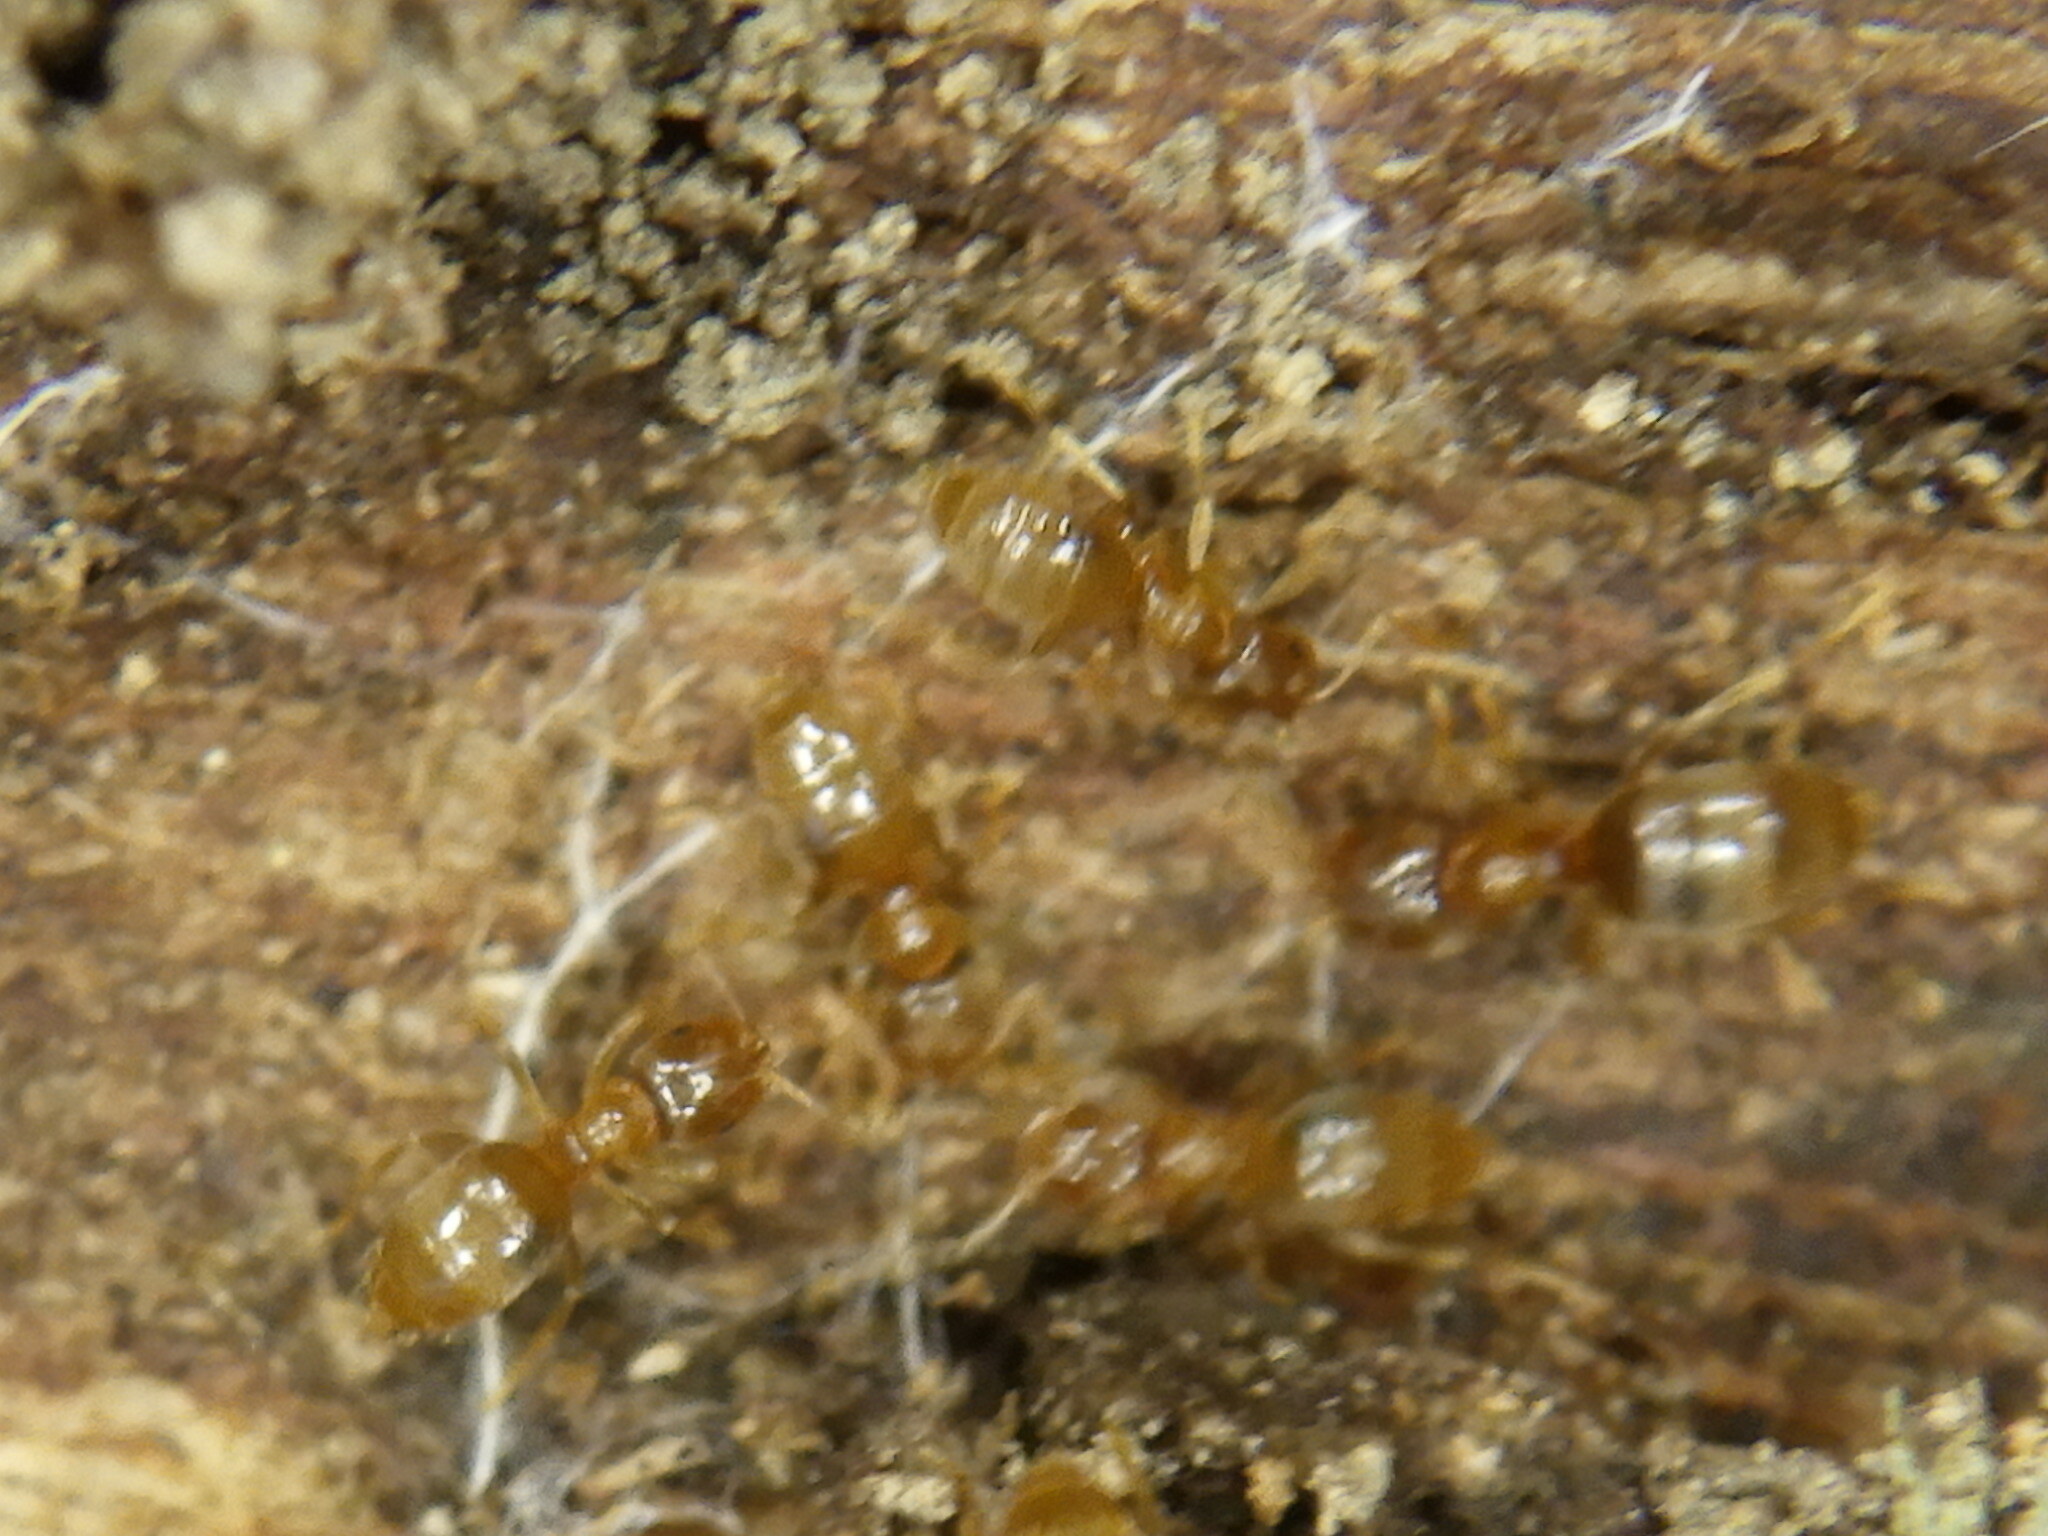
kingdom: Animalia
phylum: Arthropoda
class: Insecta
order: Hymenoptera
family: Formicidae
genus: Brachymyrmex
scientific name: Brachymyrmex depilis
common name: Hairless rover ant
